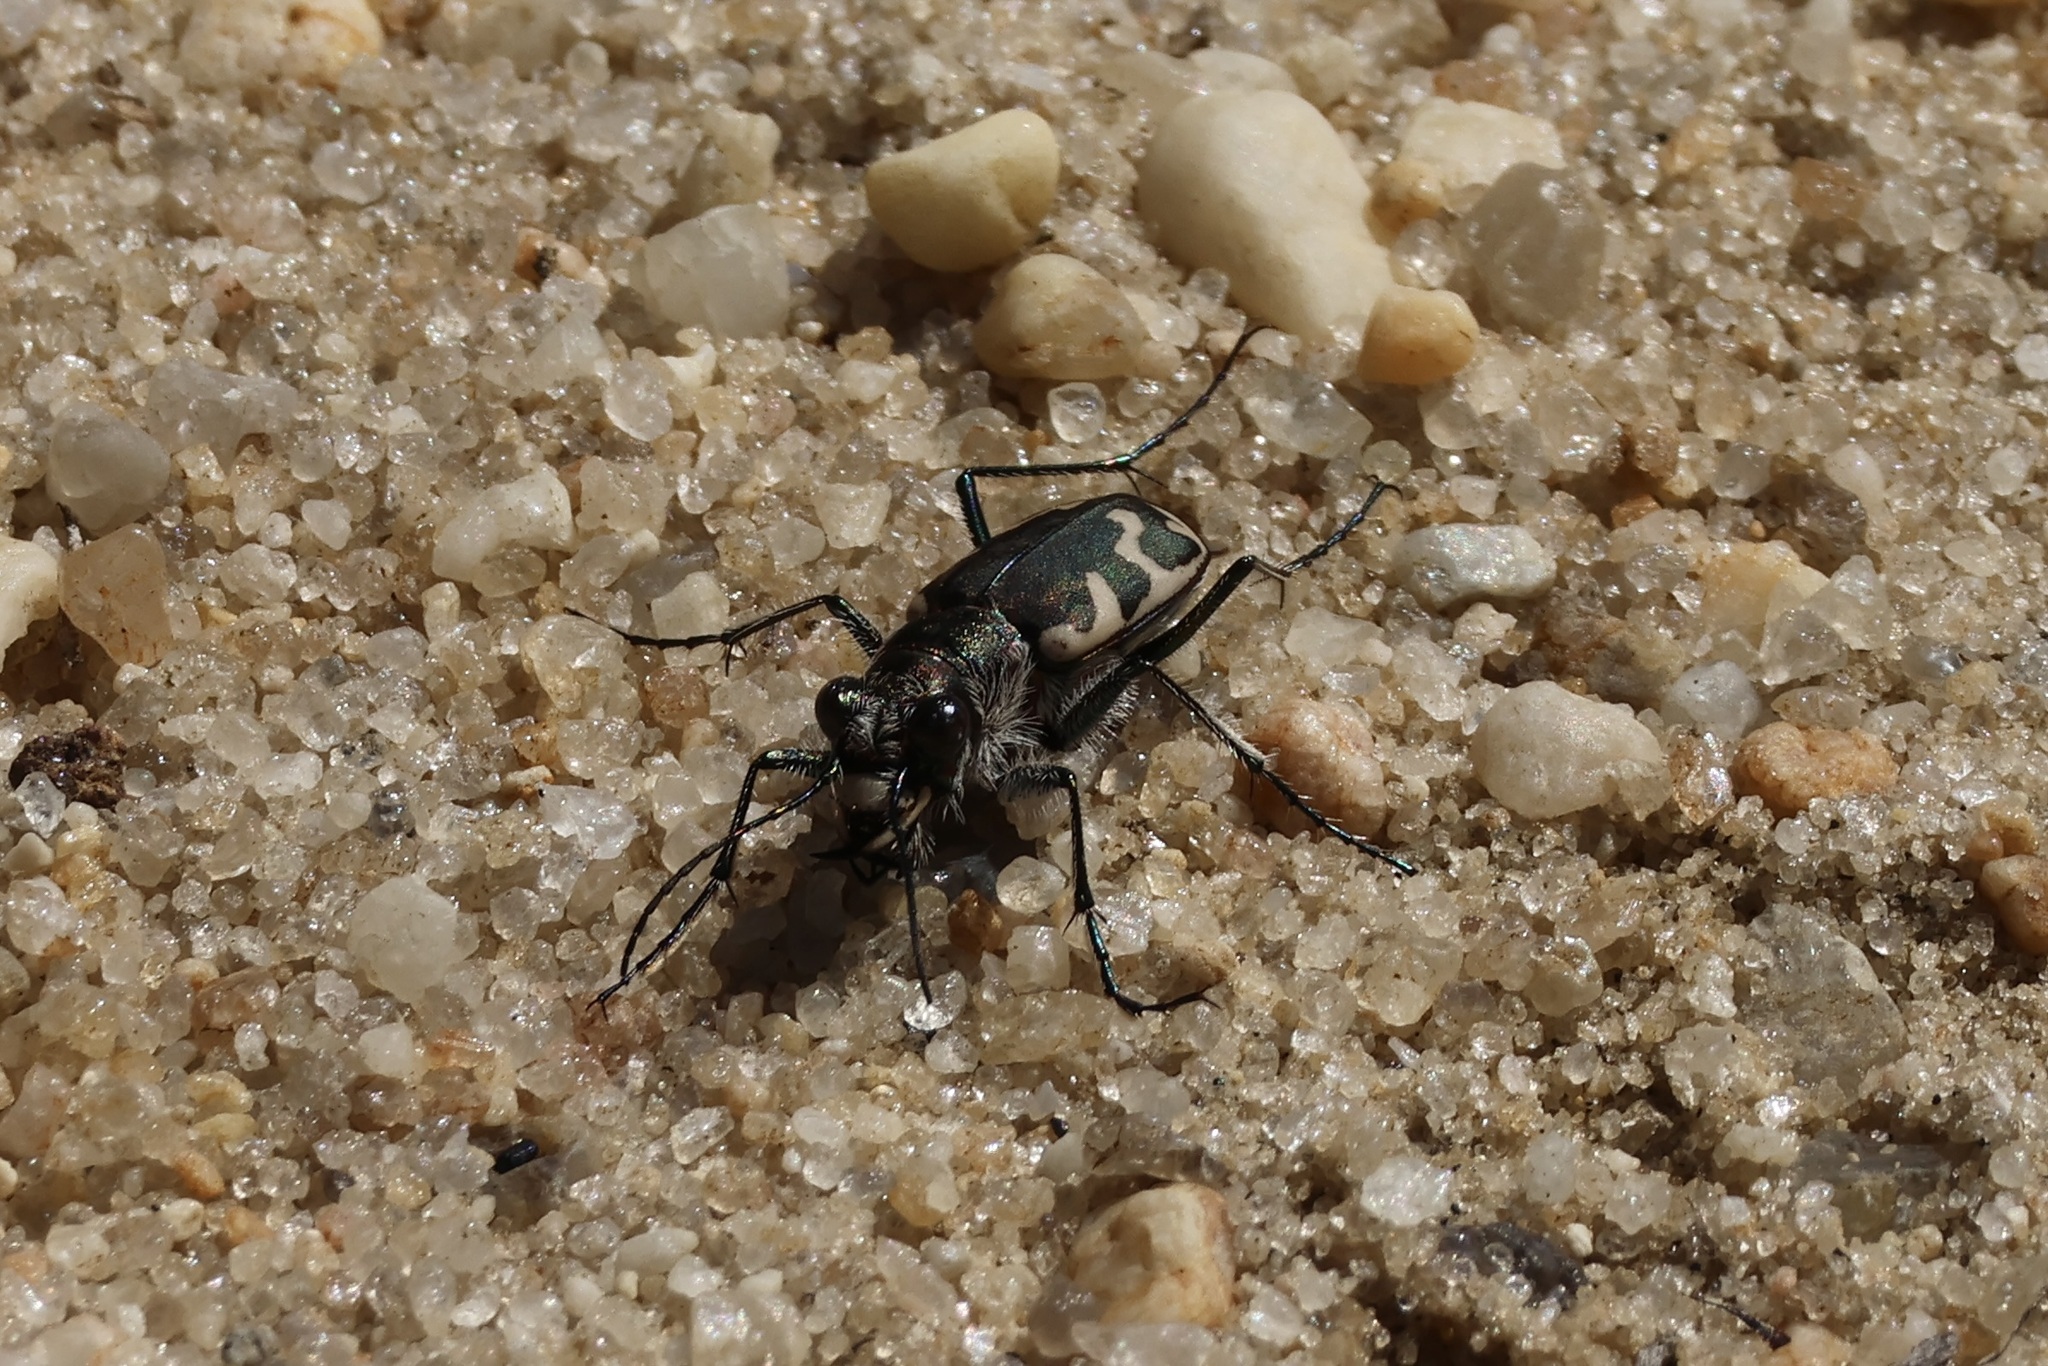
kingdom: Animalia
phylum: Arthropoda
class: Insecta
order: Coleoptera
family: Carabidae
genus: Cicindela
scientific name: Cicindela formosa
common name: Big sand tiger beetle
